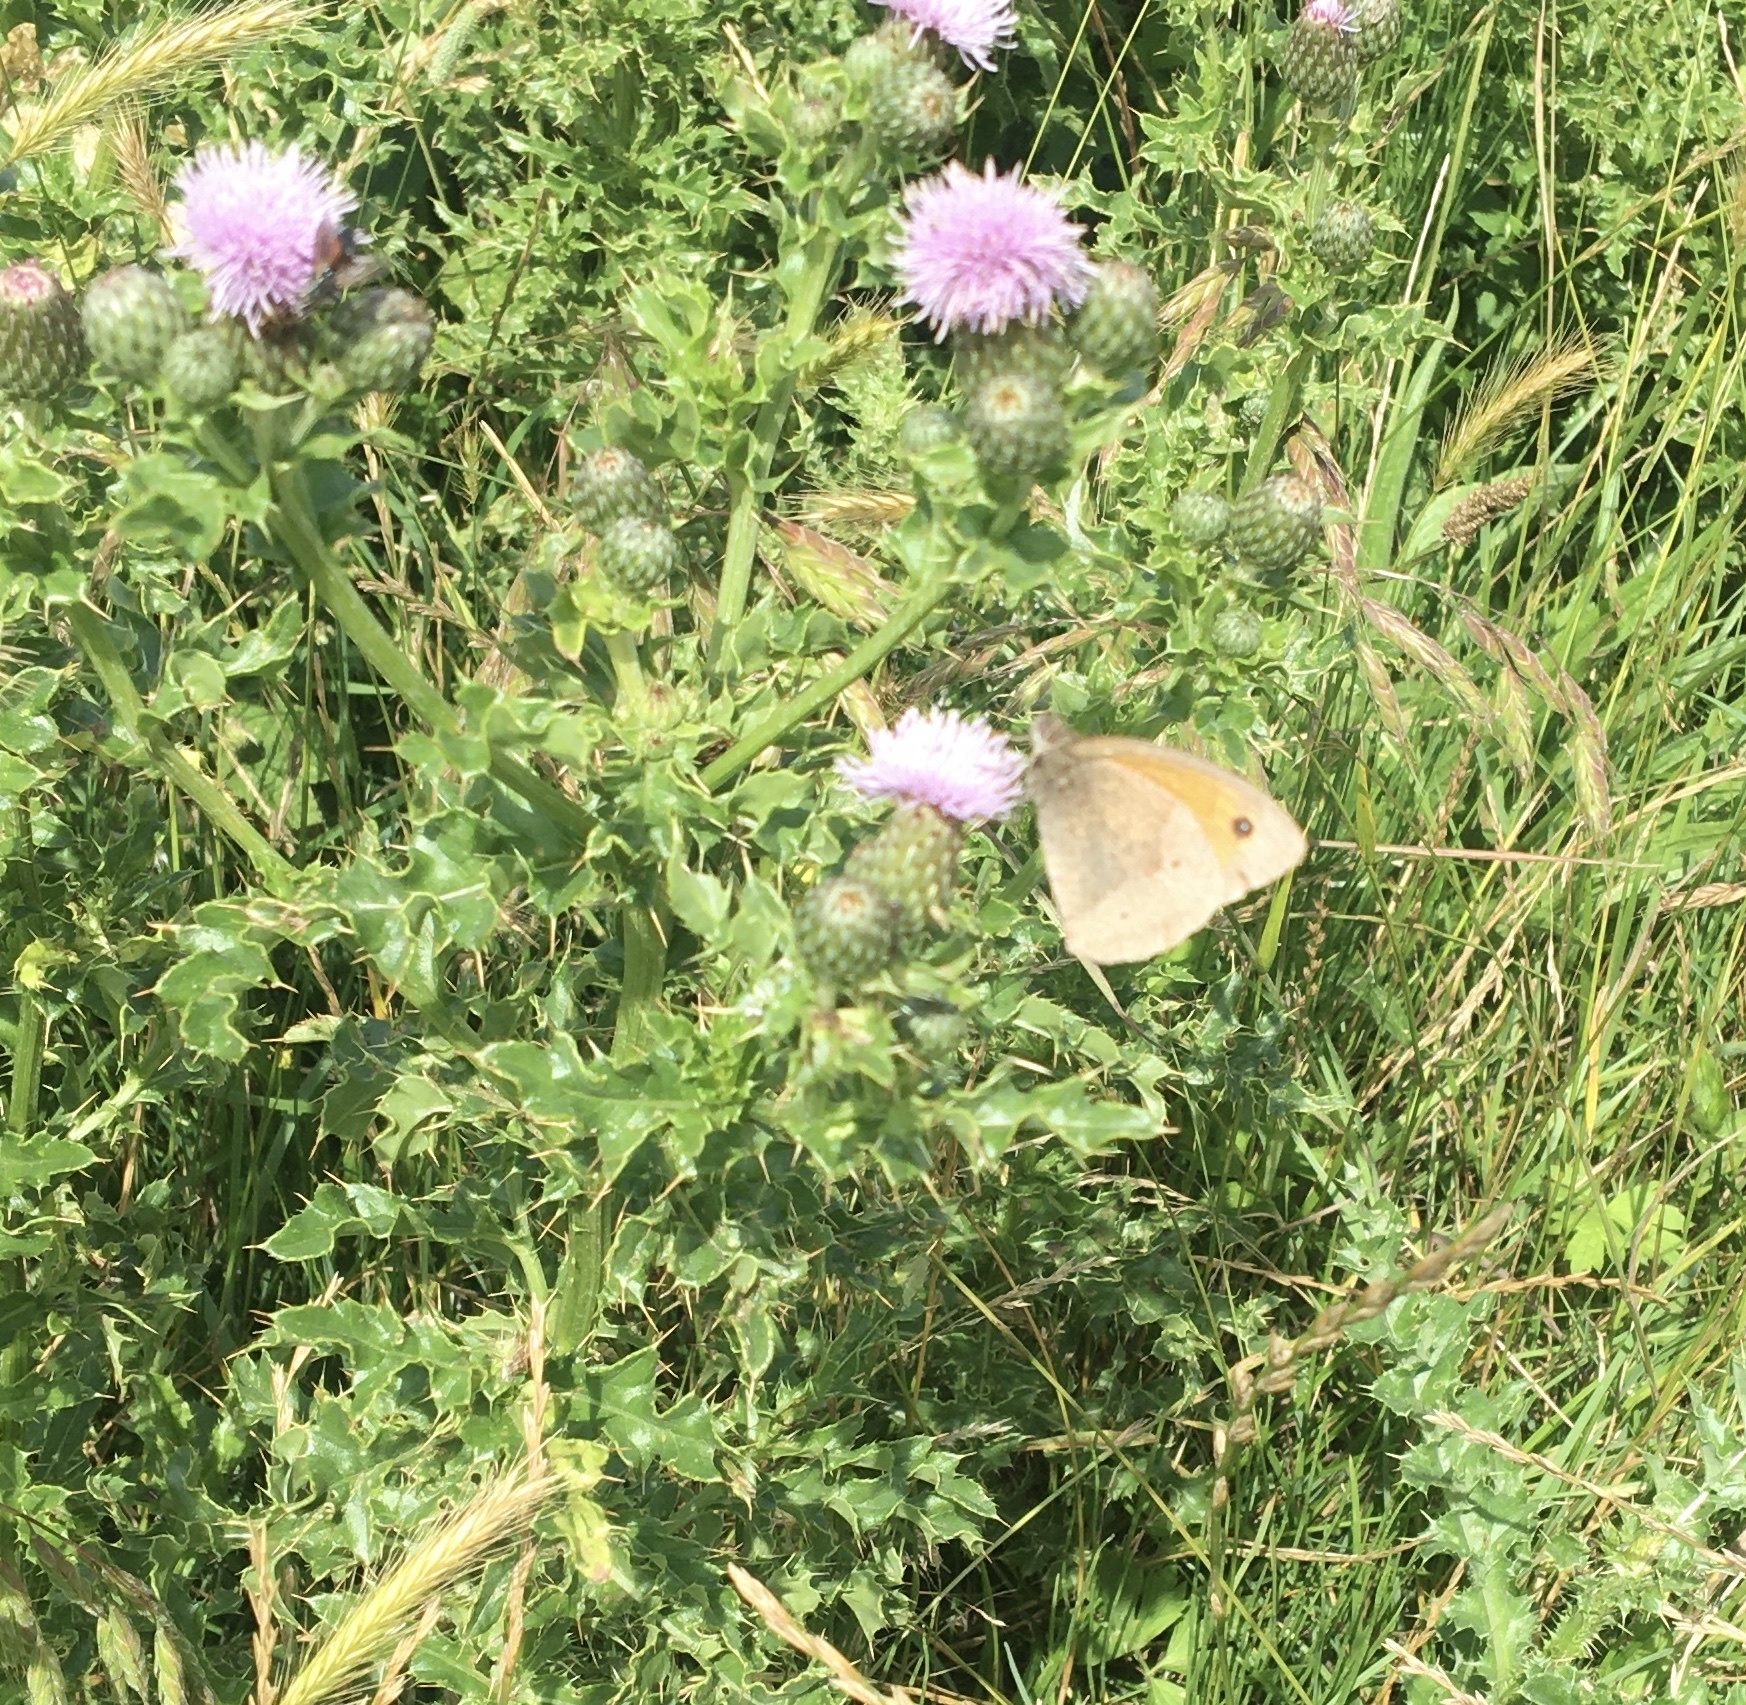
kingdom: Animalia
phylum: Arthropoda
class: Insecta
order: Lepidoptera
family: Nymphalidae
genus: Maniola
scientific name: Maniola jurtina
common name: Meadow brown
